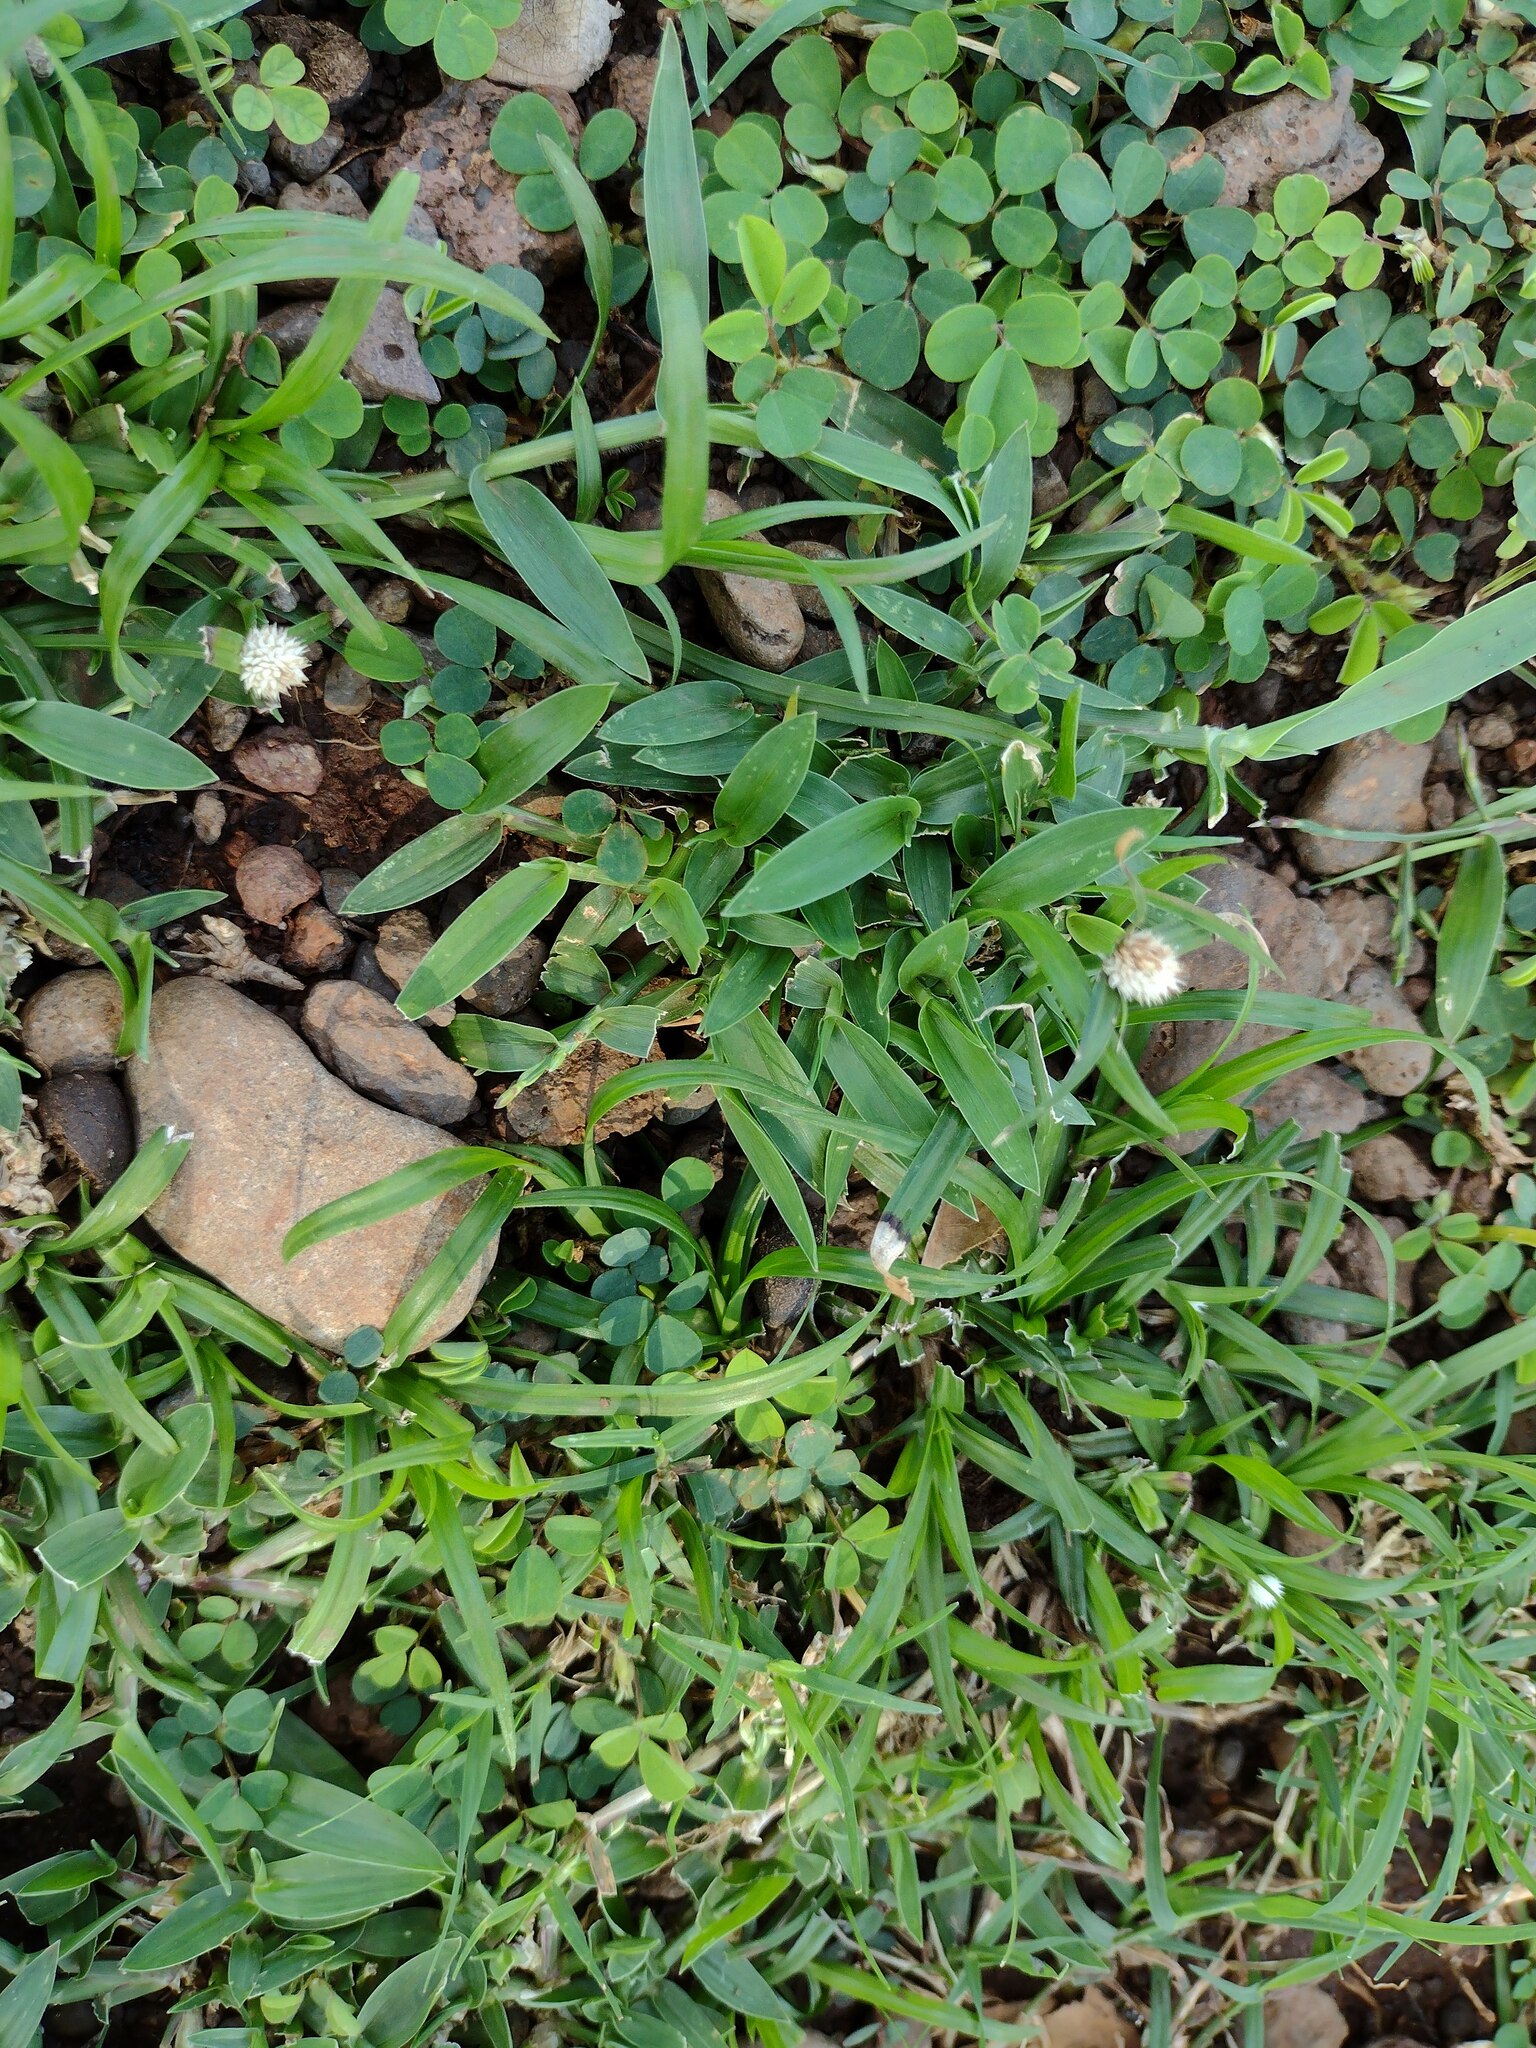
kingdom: Plantae
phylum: Tracheophyta
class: Liliopsida
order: Poales
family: Cyperaceae
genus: Cyperus
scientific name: Cyperus mindorensis
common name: Flatsedge
